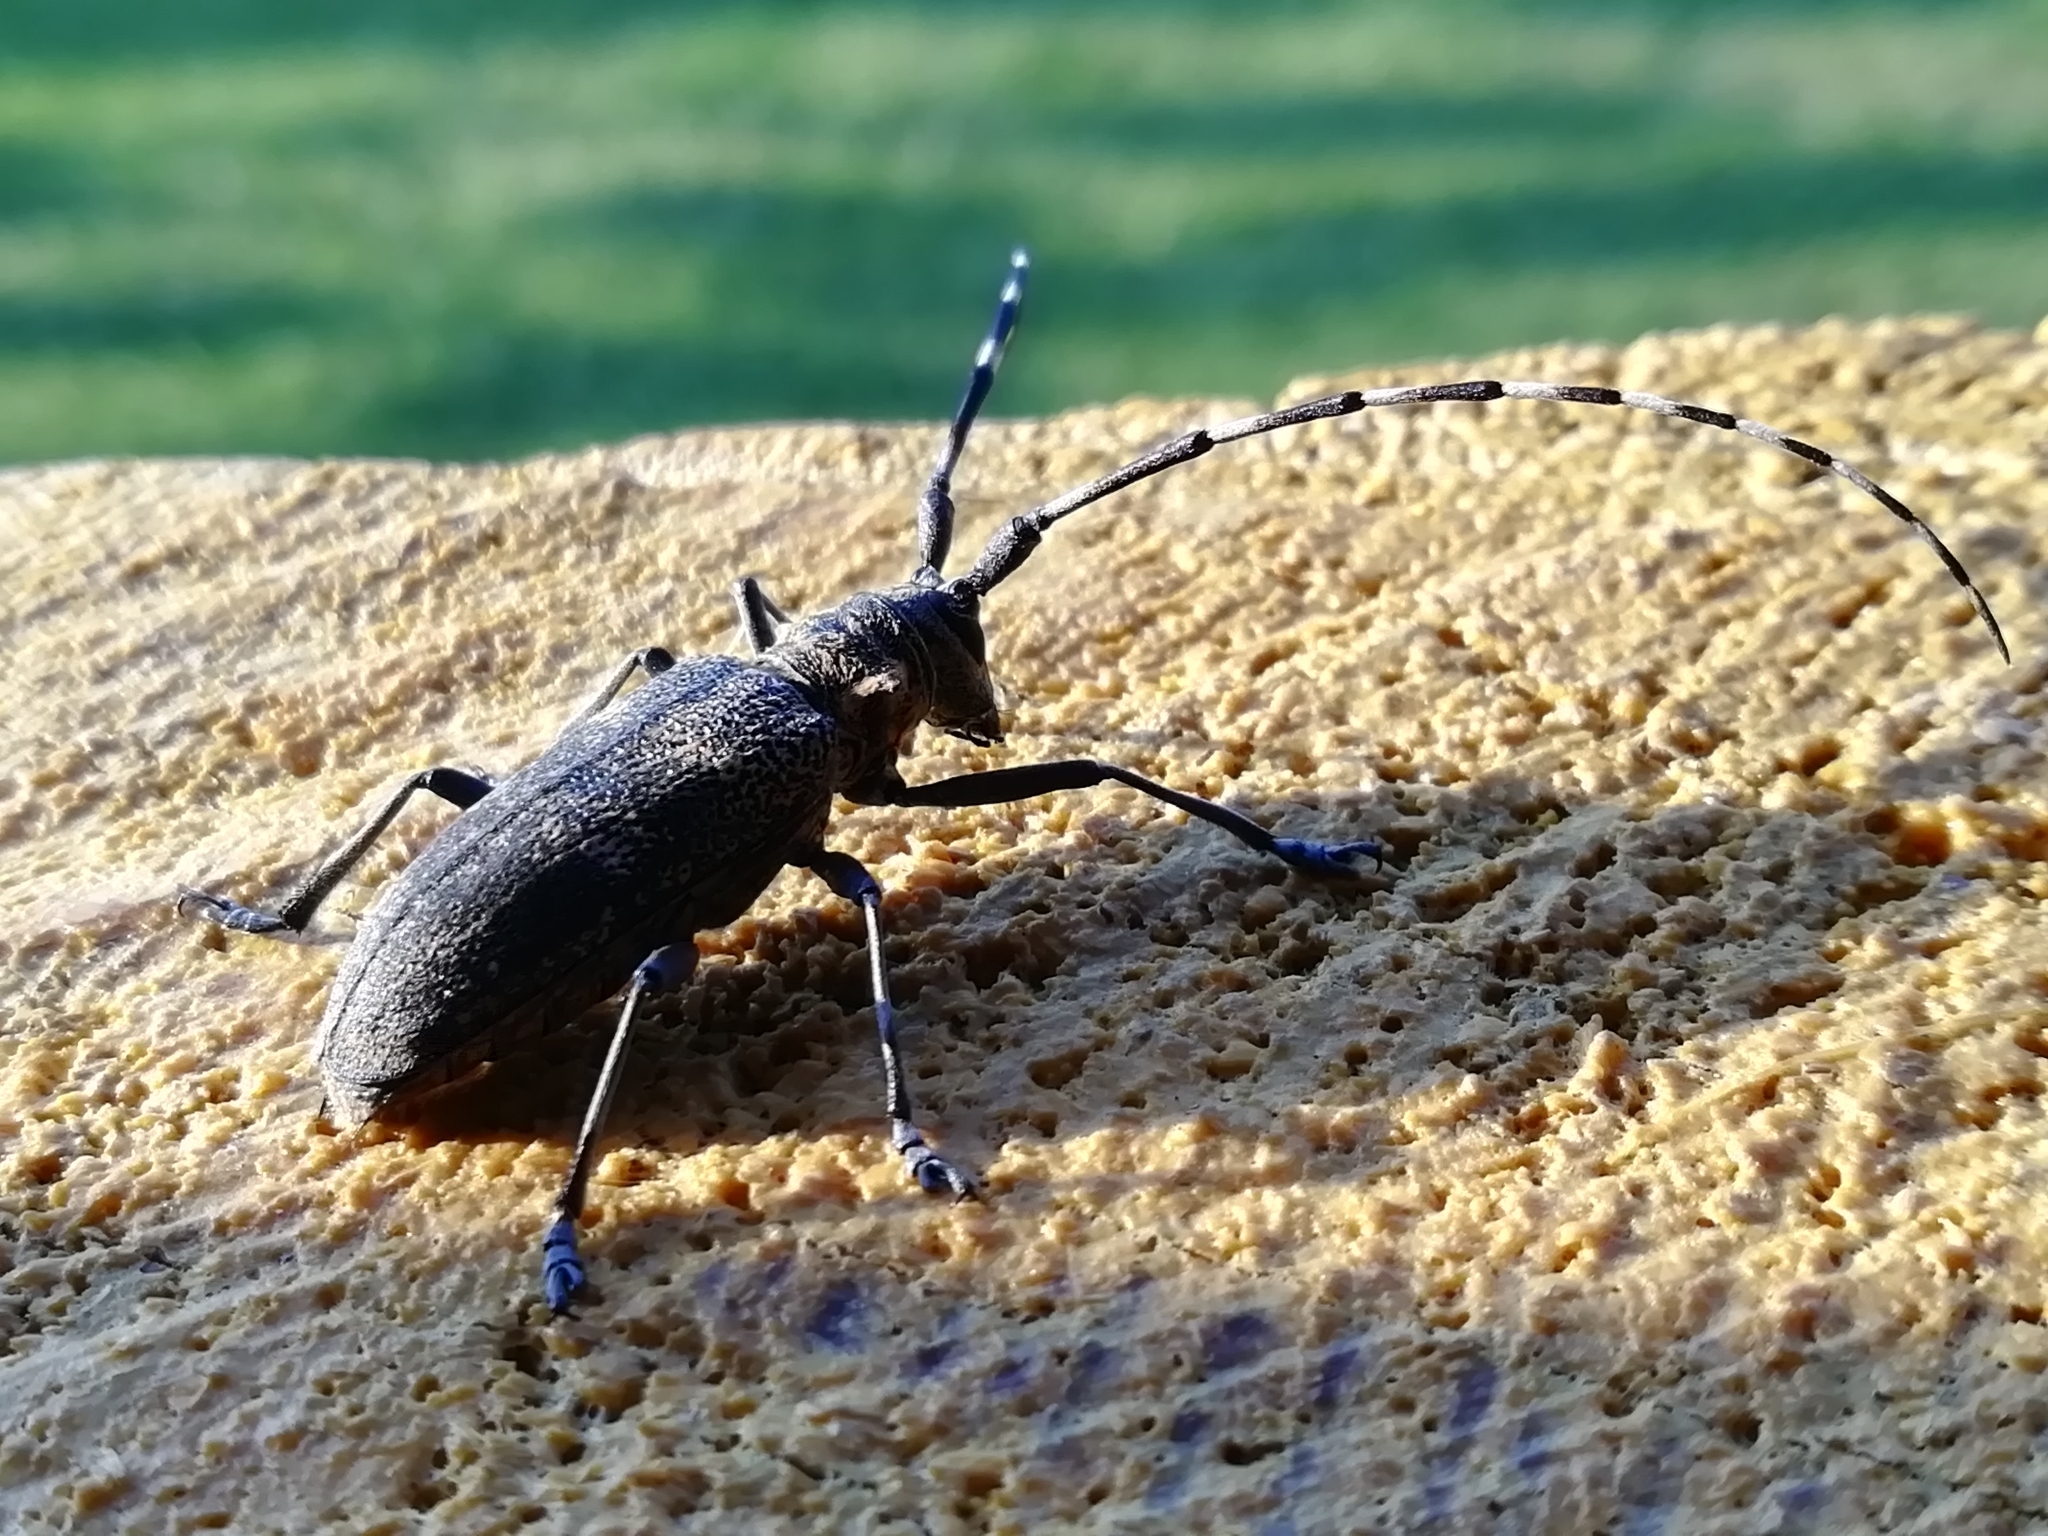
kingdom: Animalia
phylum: Arthropoda
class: Insecta
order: Coleoptera
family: Cerambycidae
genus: Monochamus
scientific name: Monochamus galloprovincialis
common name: Pine sawyer
